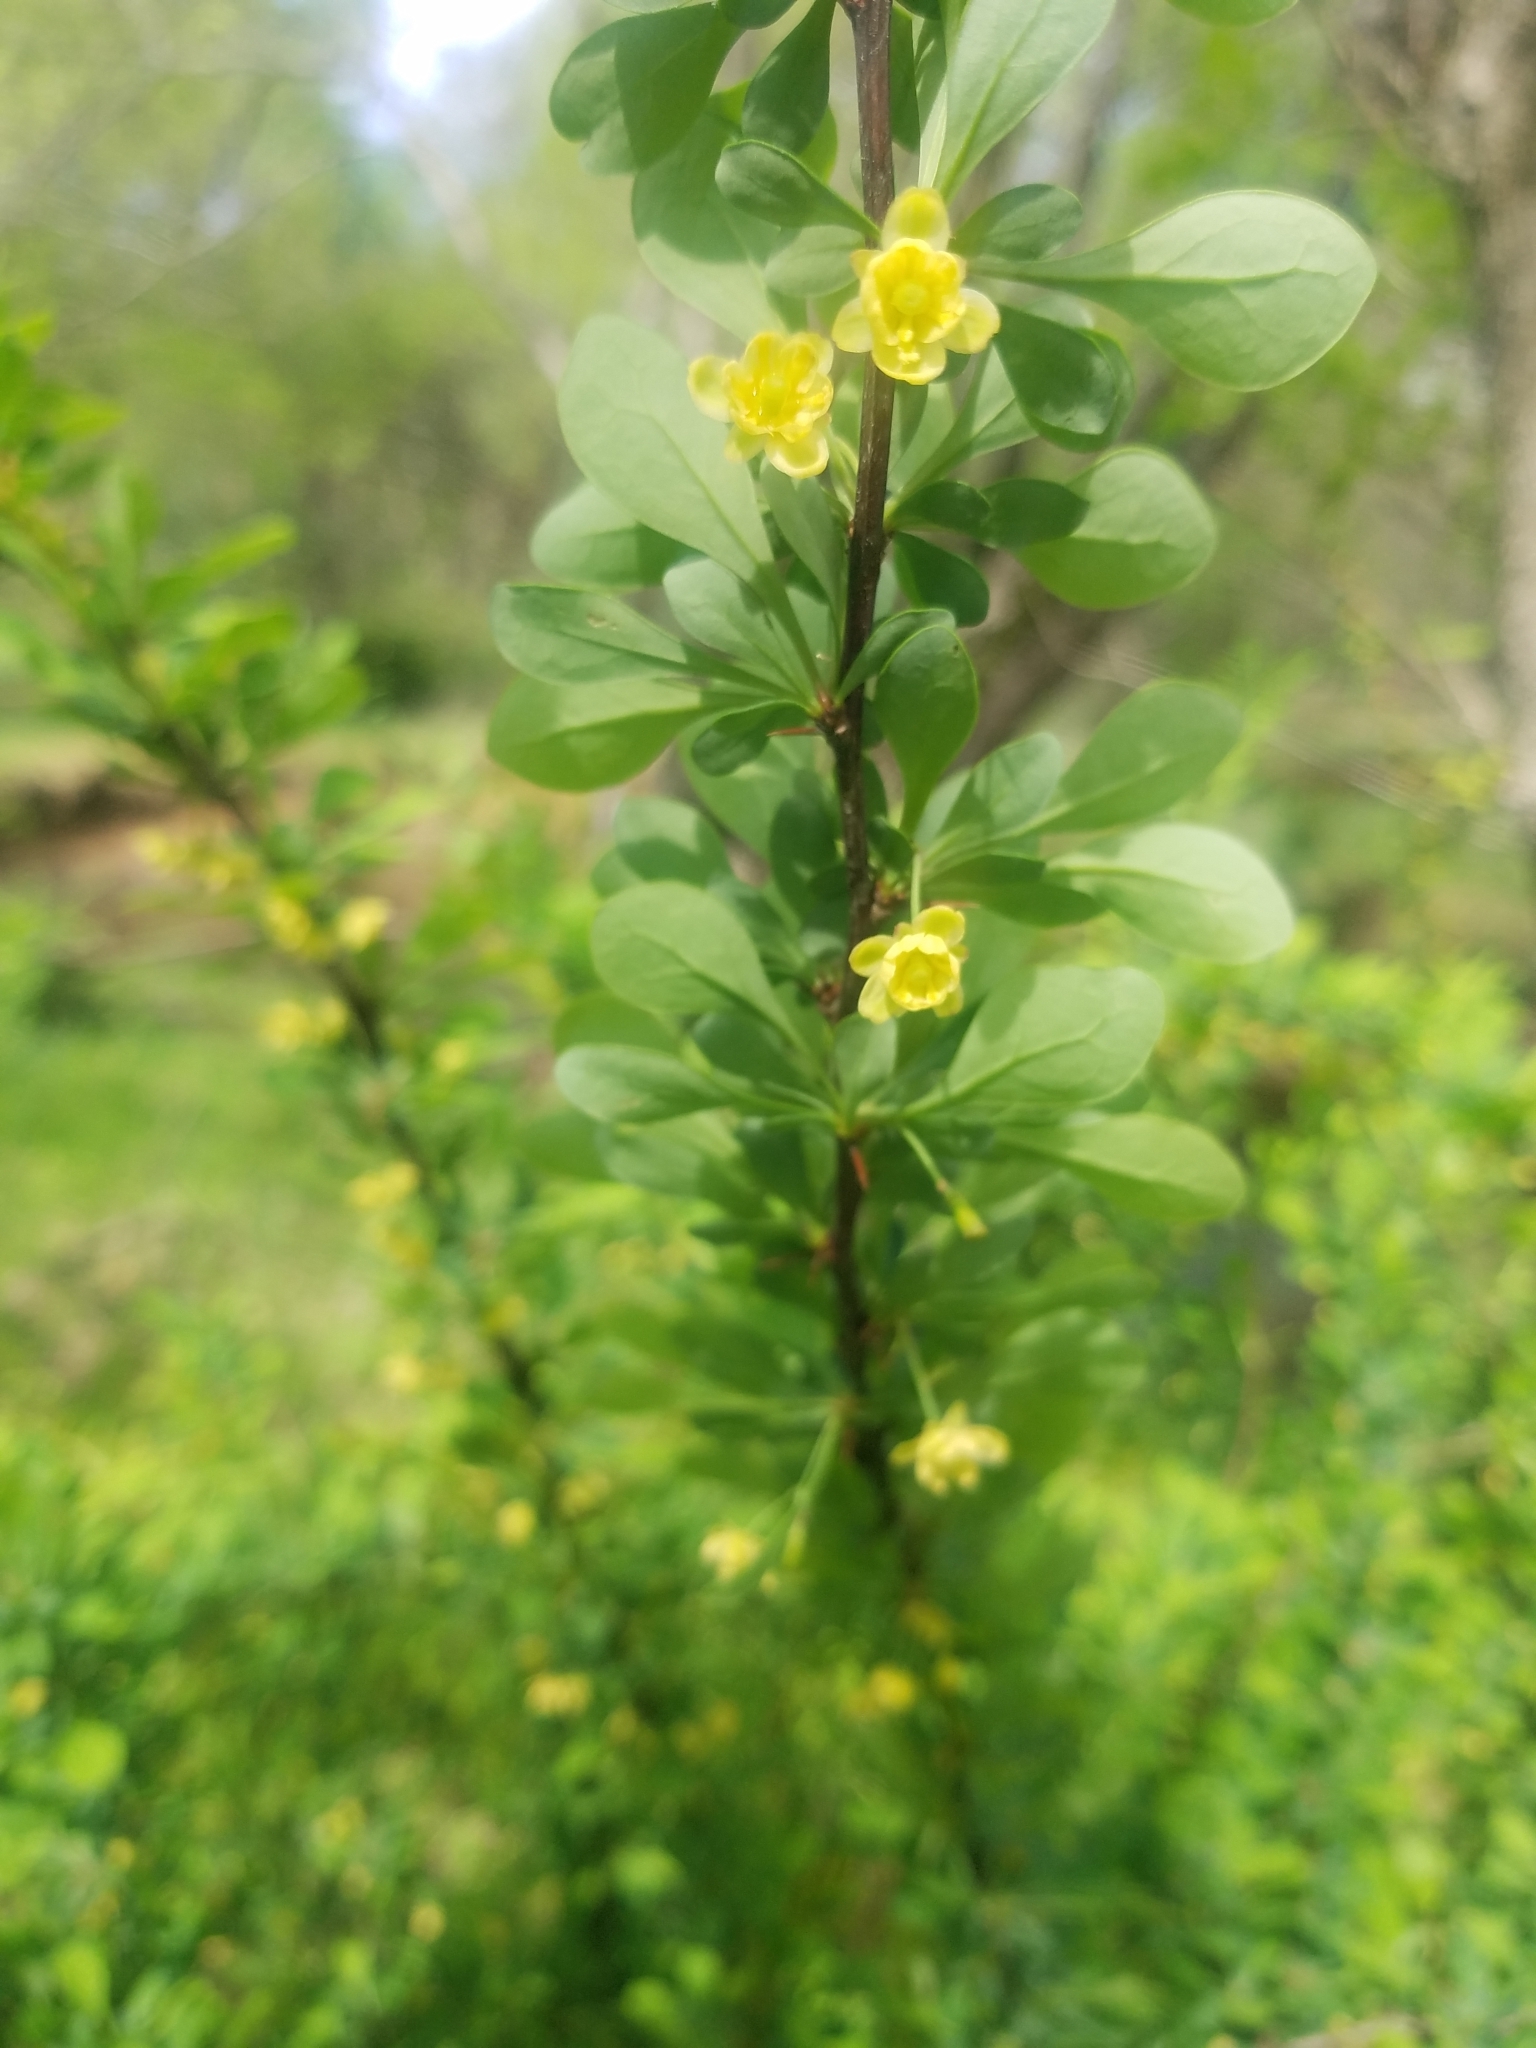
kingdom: Plantae
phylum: Tracheophyta
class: Magnoliopsida
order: Ranunculales
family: Berberidaceae
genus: Berberis
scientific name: Berberis thunbergii
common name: Japanese barberry
